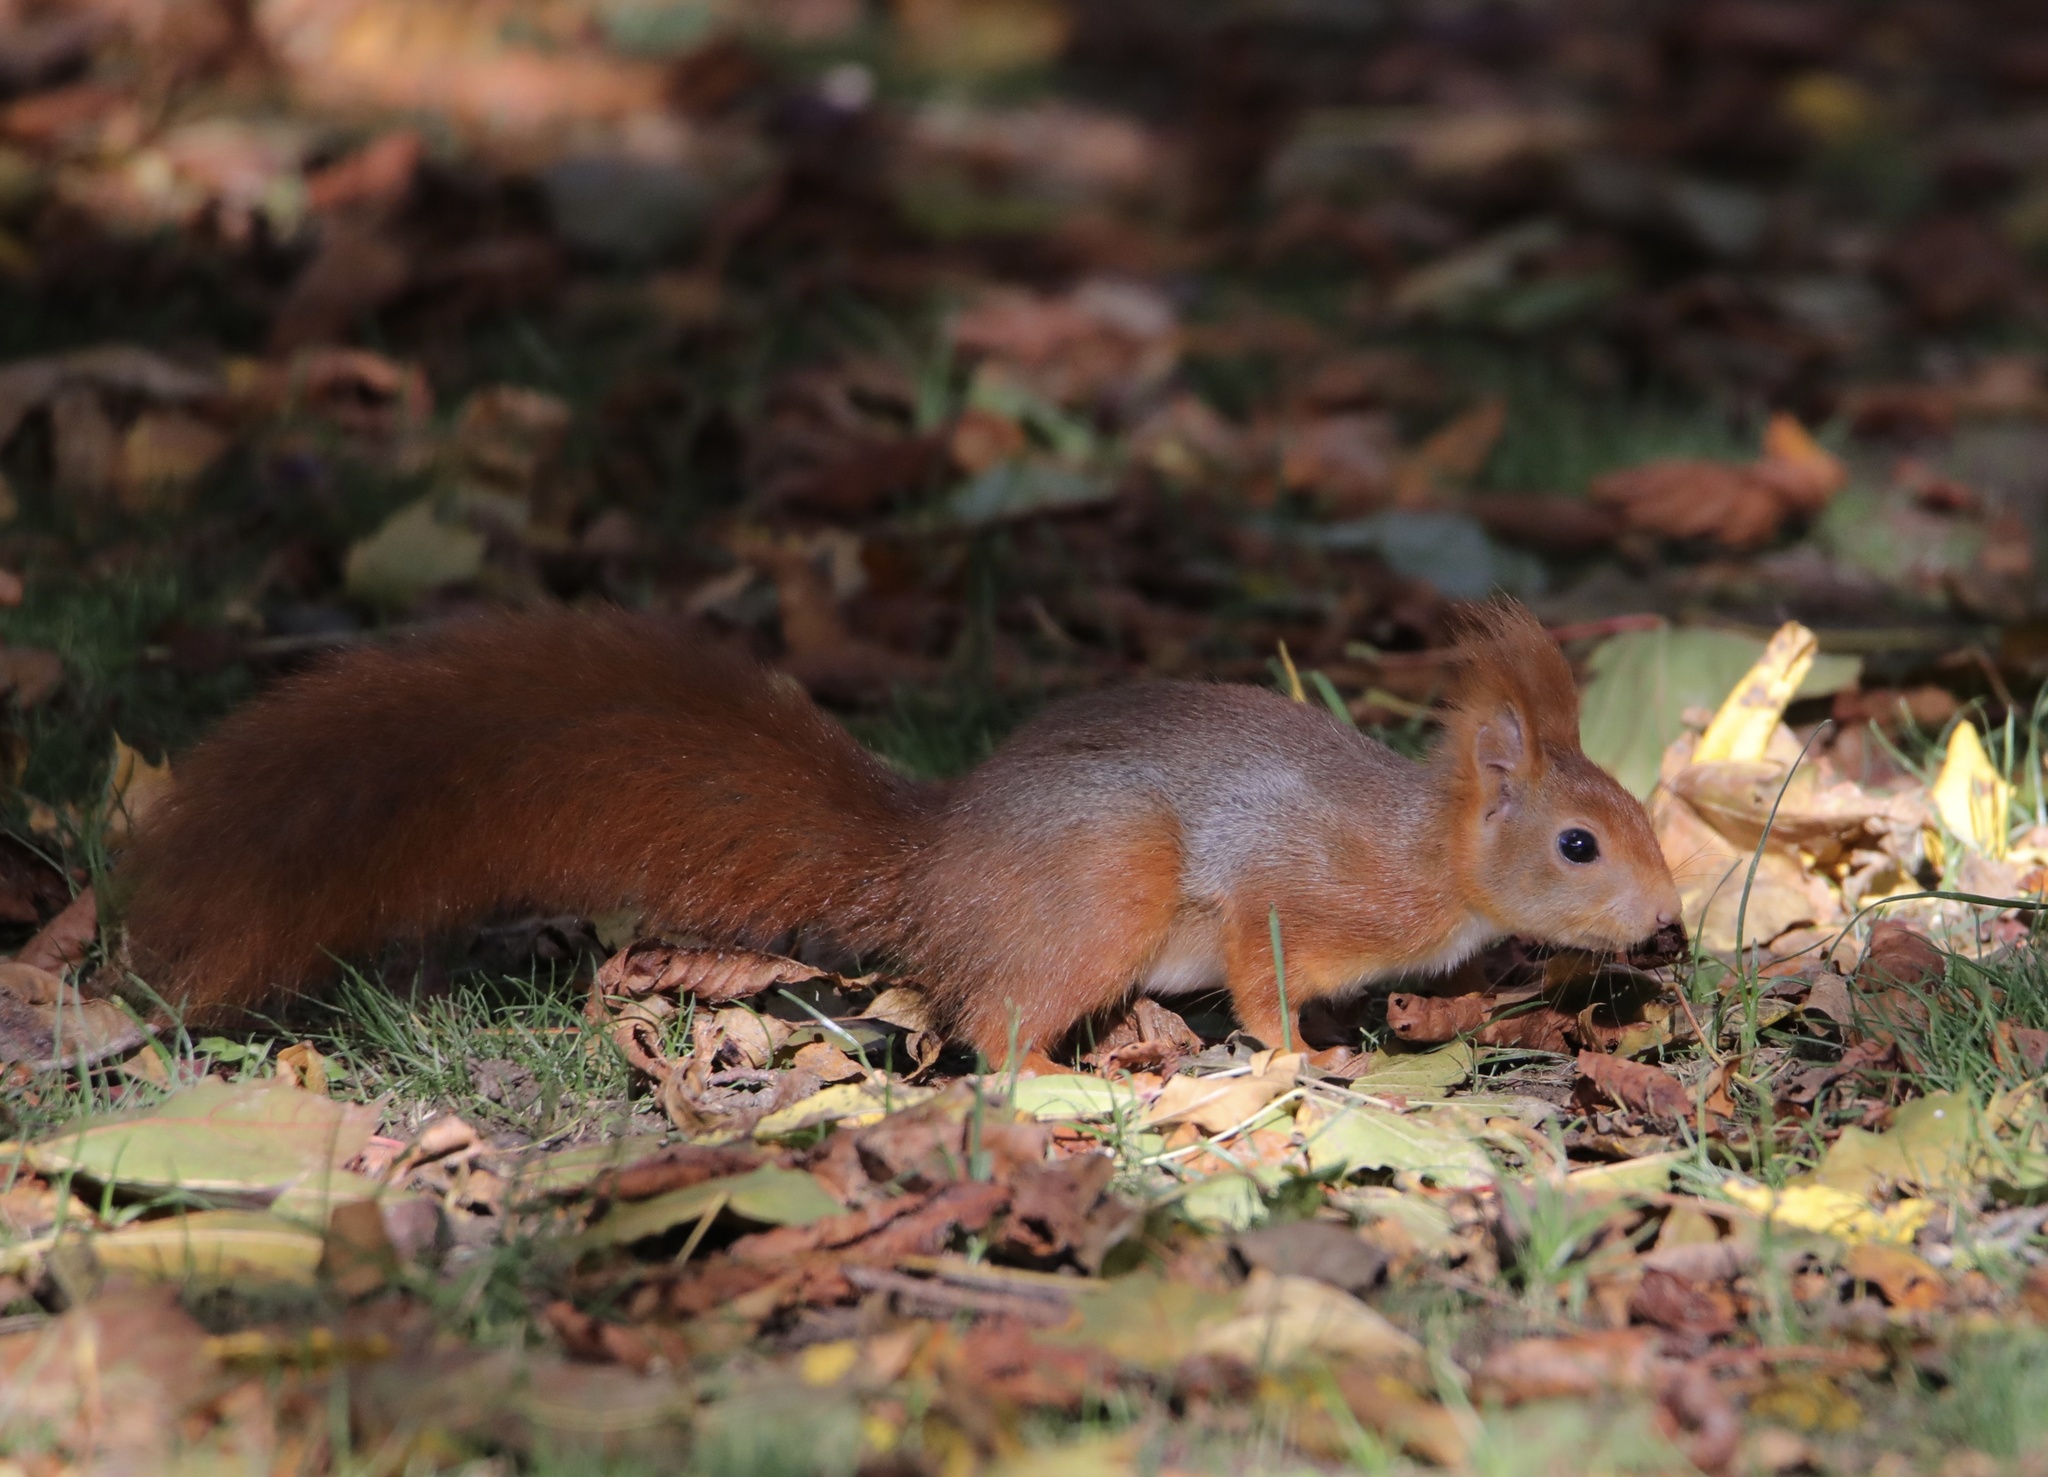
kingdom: Animalia
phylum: Chordata
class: Mammalia
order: Rodentia
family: Sciuridae
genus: Sciurus
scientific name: Sciurus vulgaris
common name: Eurasian red squirrel
